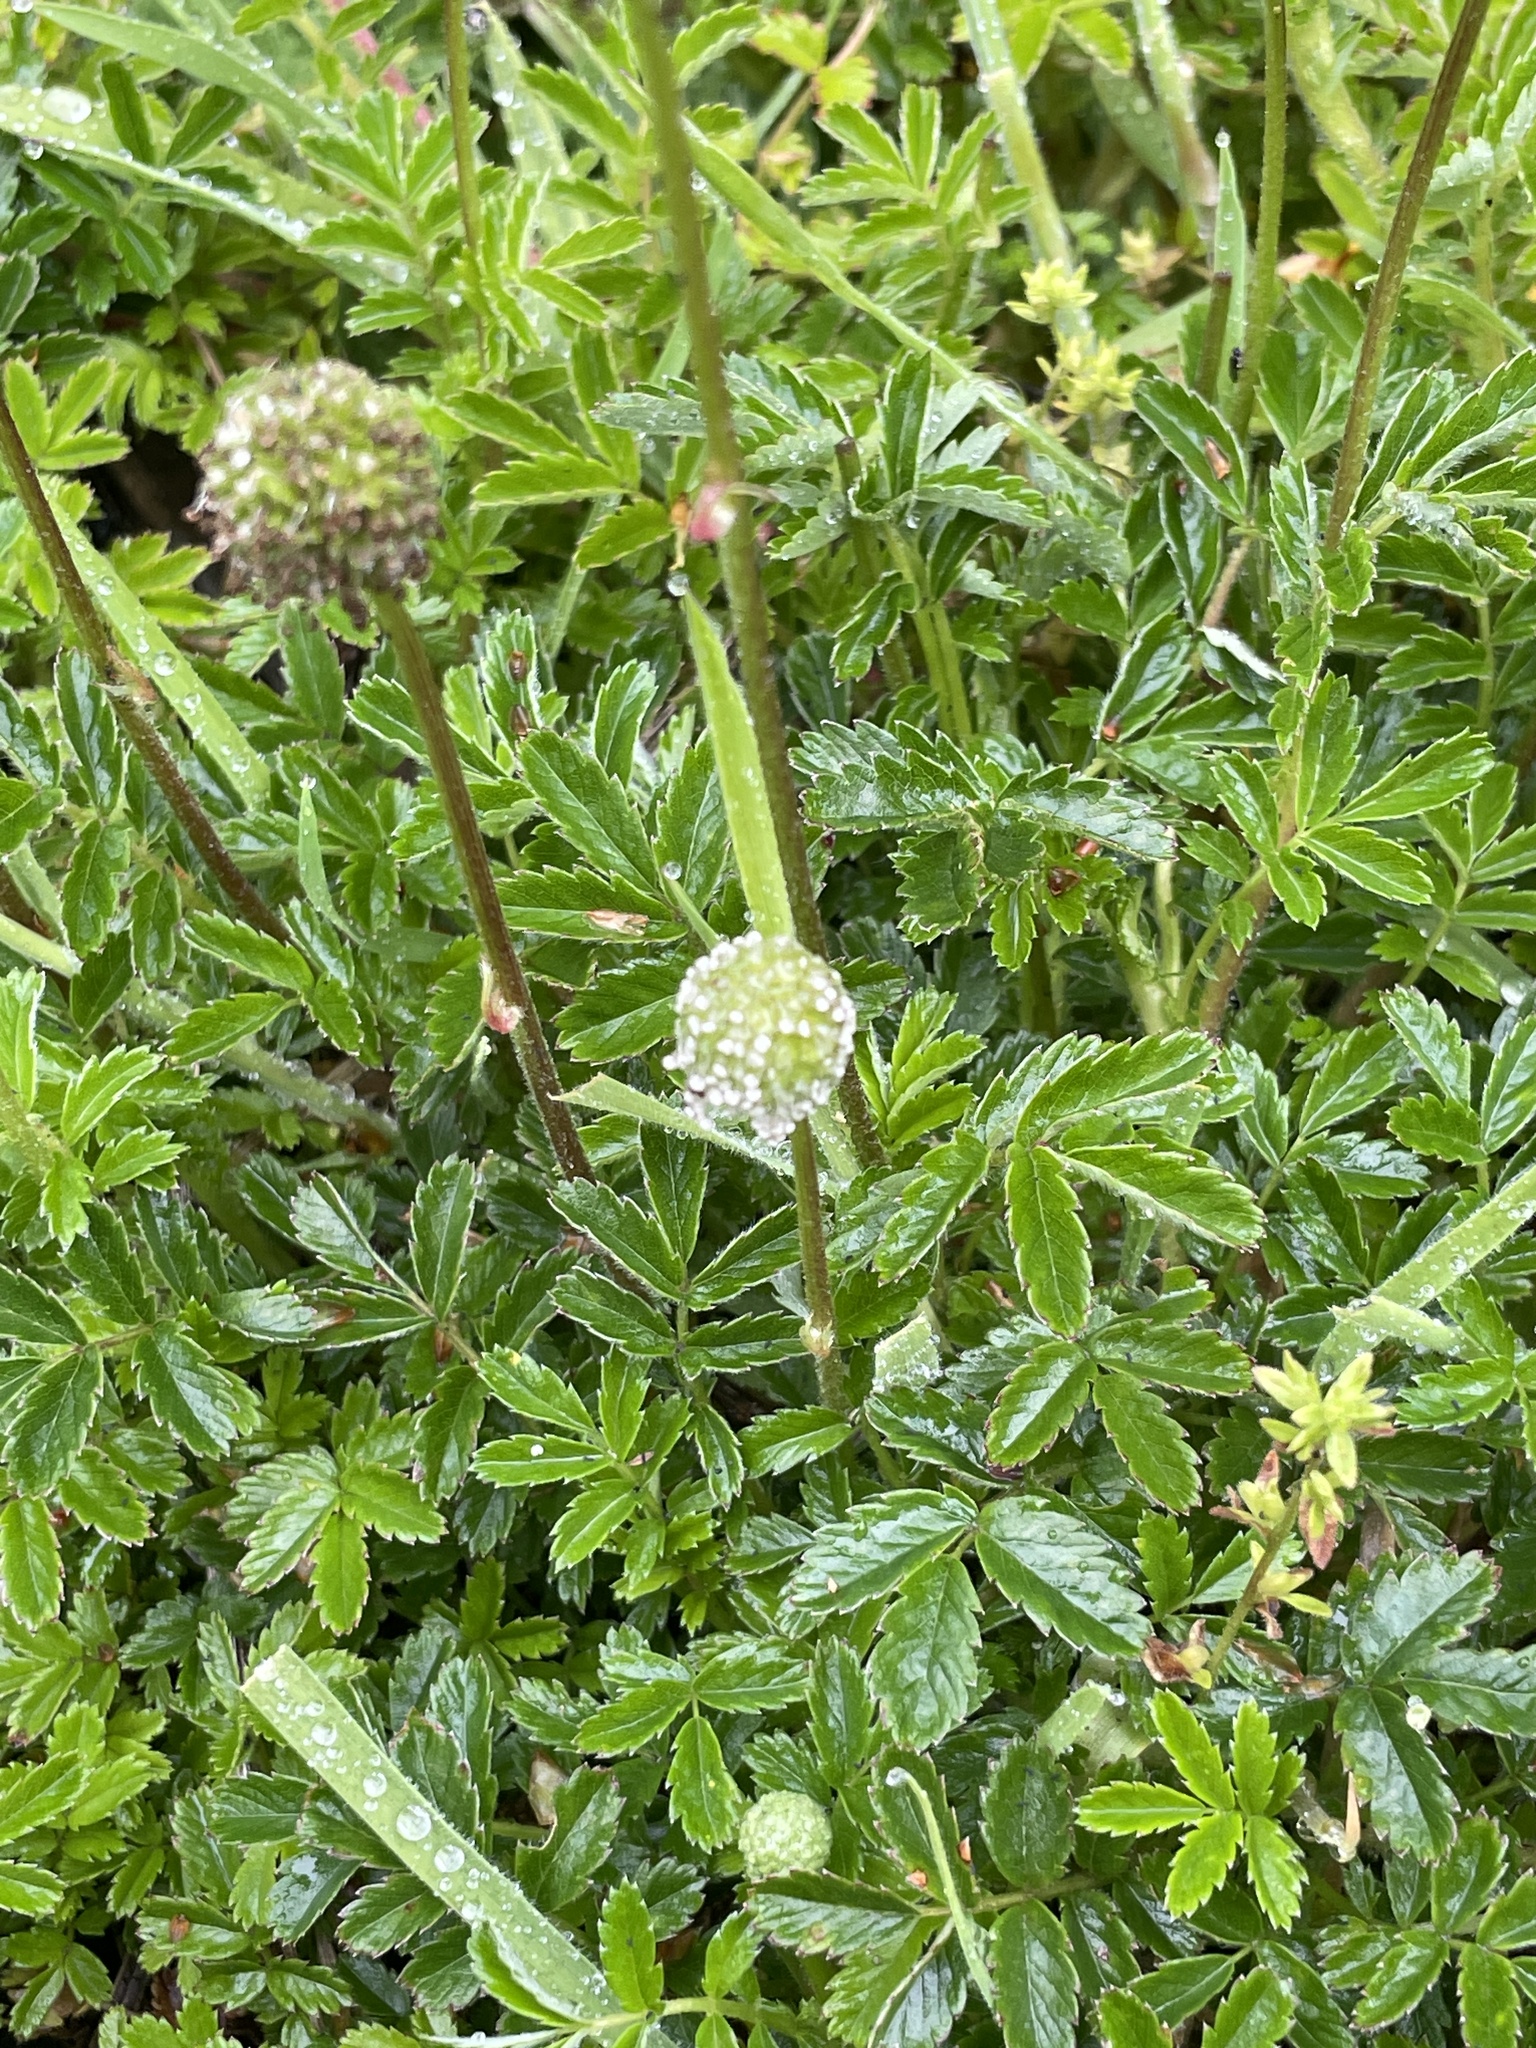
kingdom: Plantae
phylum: Tracheophyta
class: Magnoliopsida
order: Rosales
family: Rosaceae
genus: Acaena
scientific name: Acaena novae-zelandiae
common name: Pirri-pirri-bur
